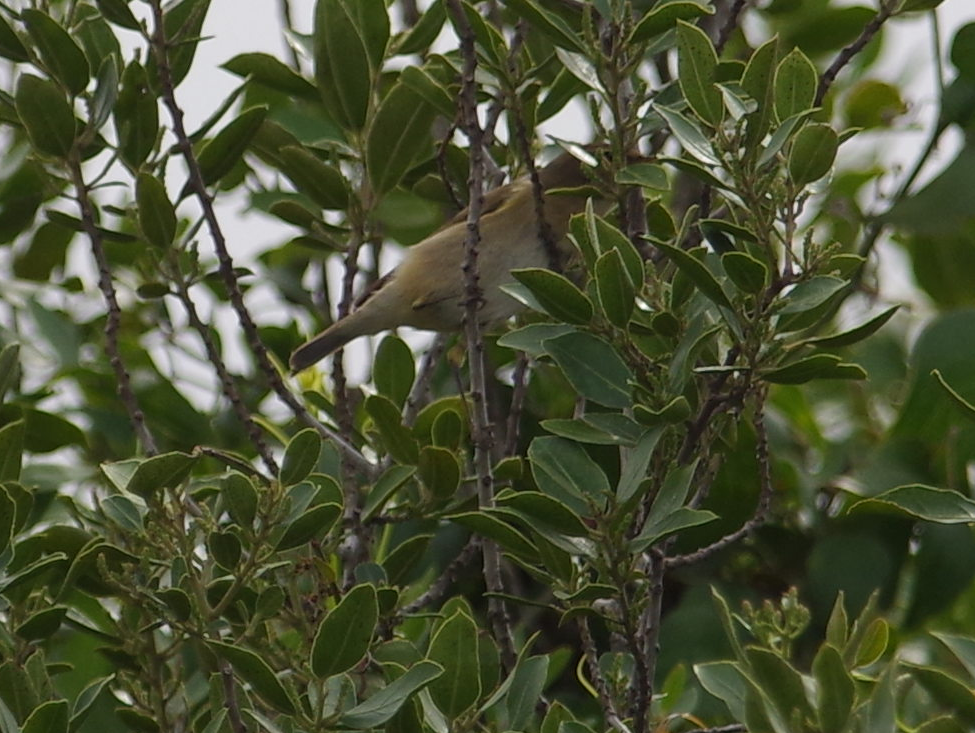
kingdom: Animalia
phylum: Chordata
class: Aves
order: Passeriformes
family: Phylloscopidae
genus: Phylloscopus
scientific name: Phylloscopus collybita
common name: Common chiffchaff
